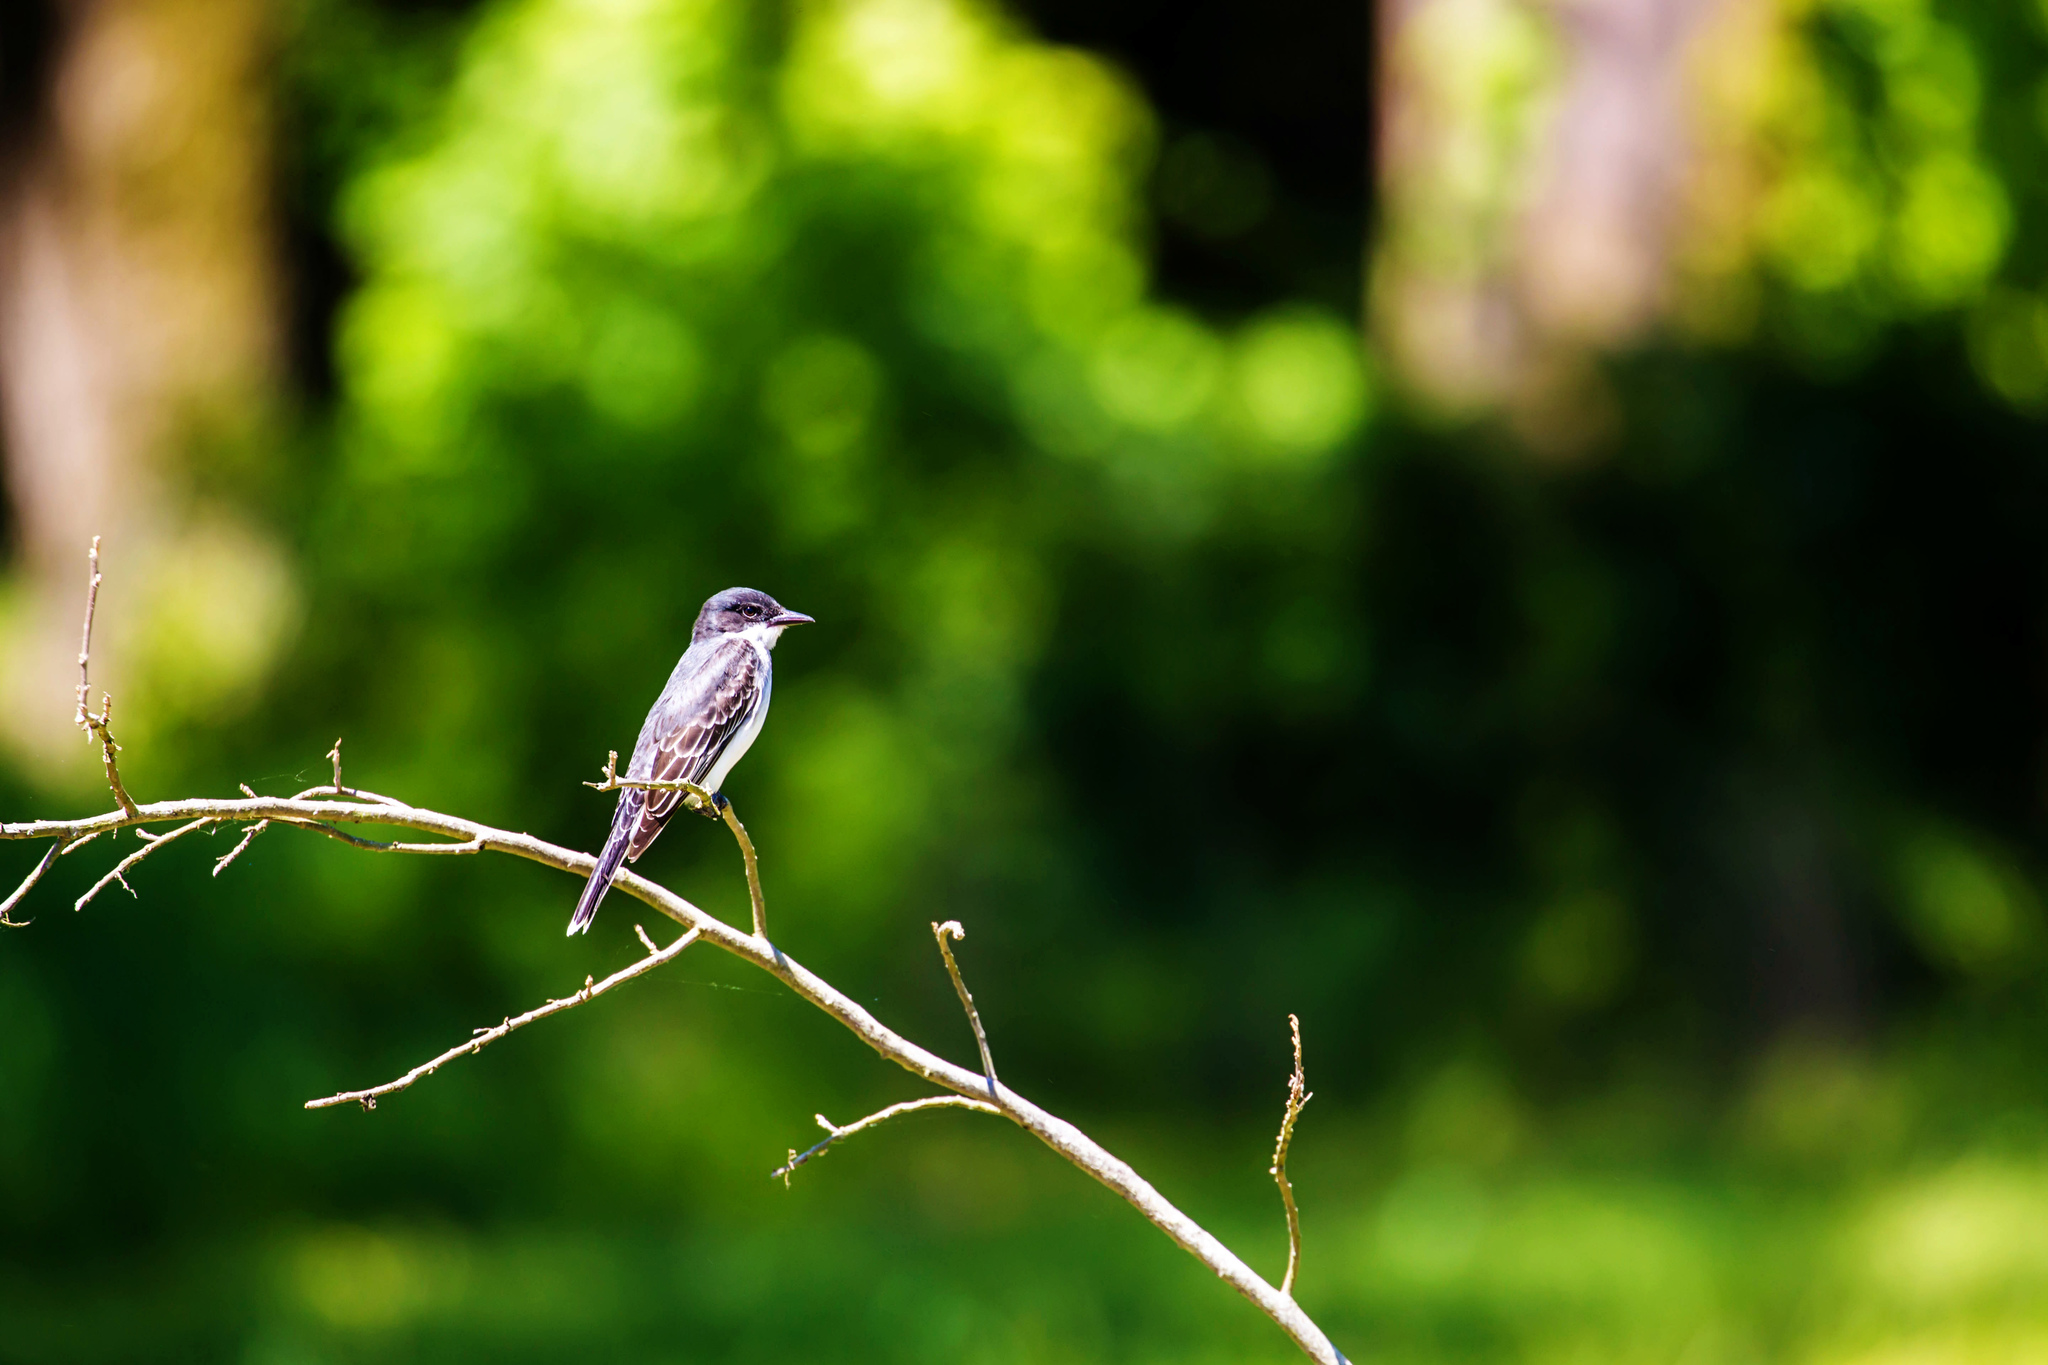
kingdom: Animalia
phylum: Chordata
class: Aves
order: Passeriformes
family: Tyrannidae
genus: Tyrannus
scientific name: Tyrannus tyrannus
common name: Eastern kingbird
